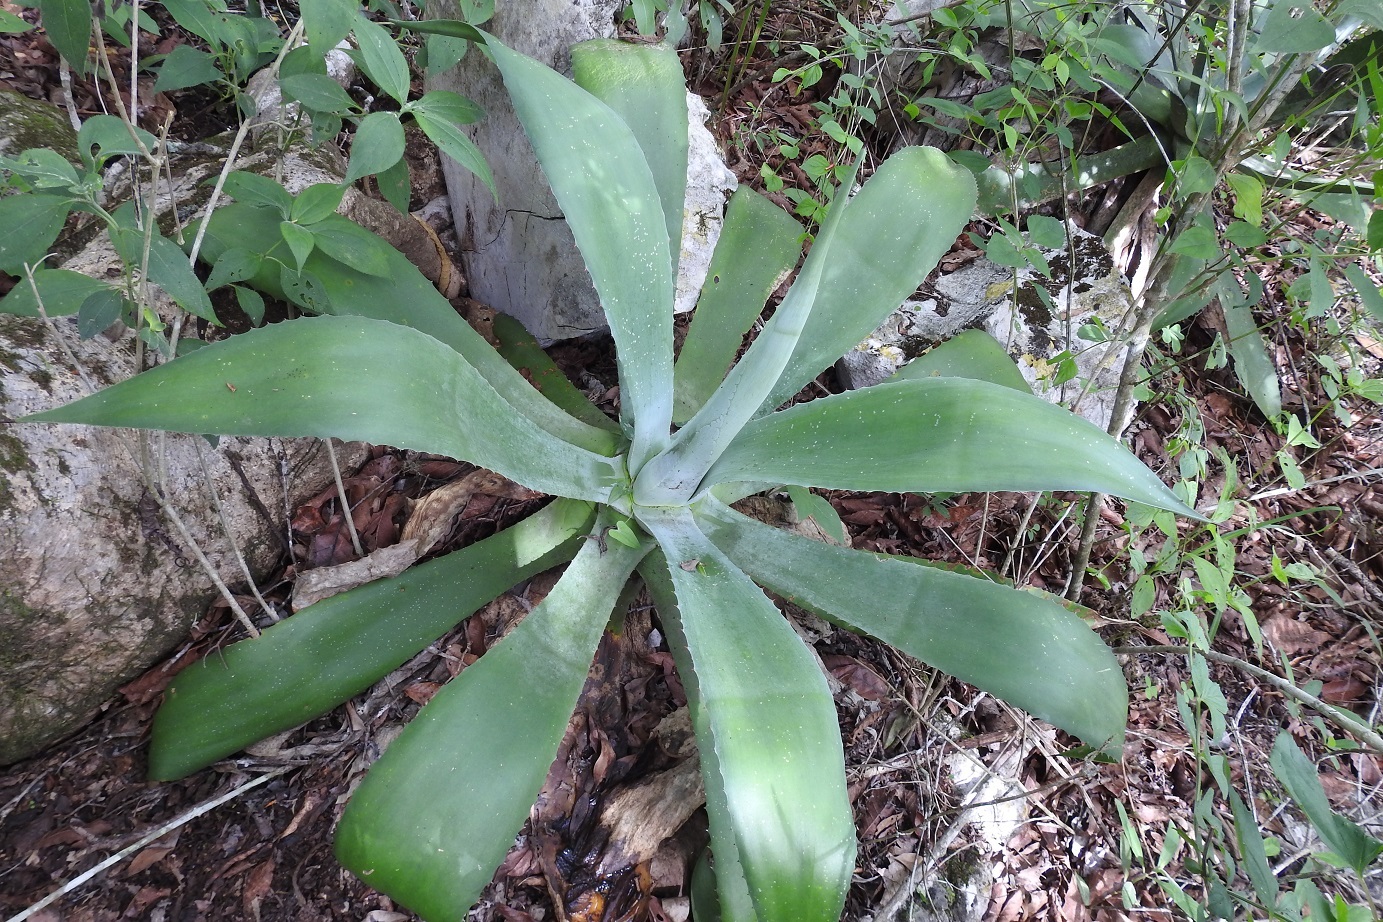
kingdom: Plantae
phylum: Tracheophyta
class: Liliopsida
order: Asparagales
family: Asparagaceae
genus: Agave
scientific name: Agave kewensis
